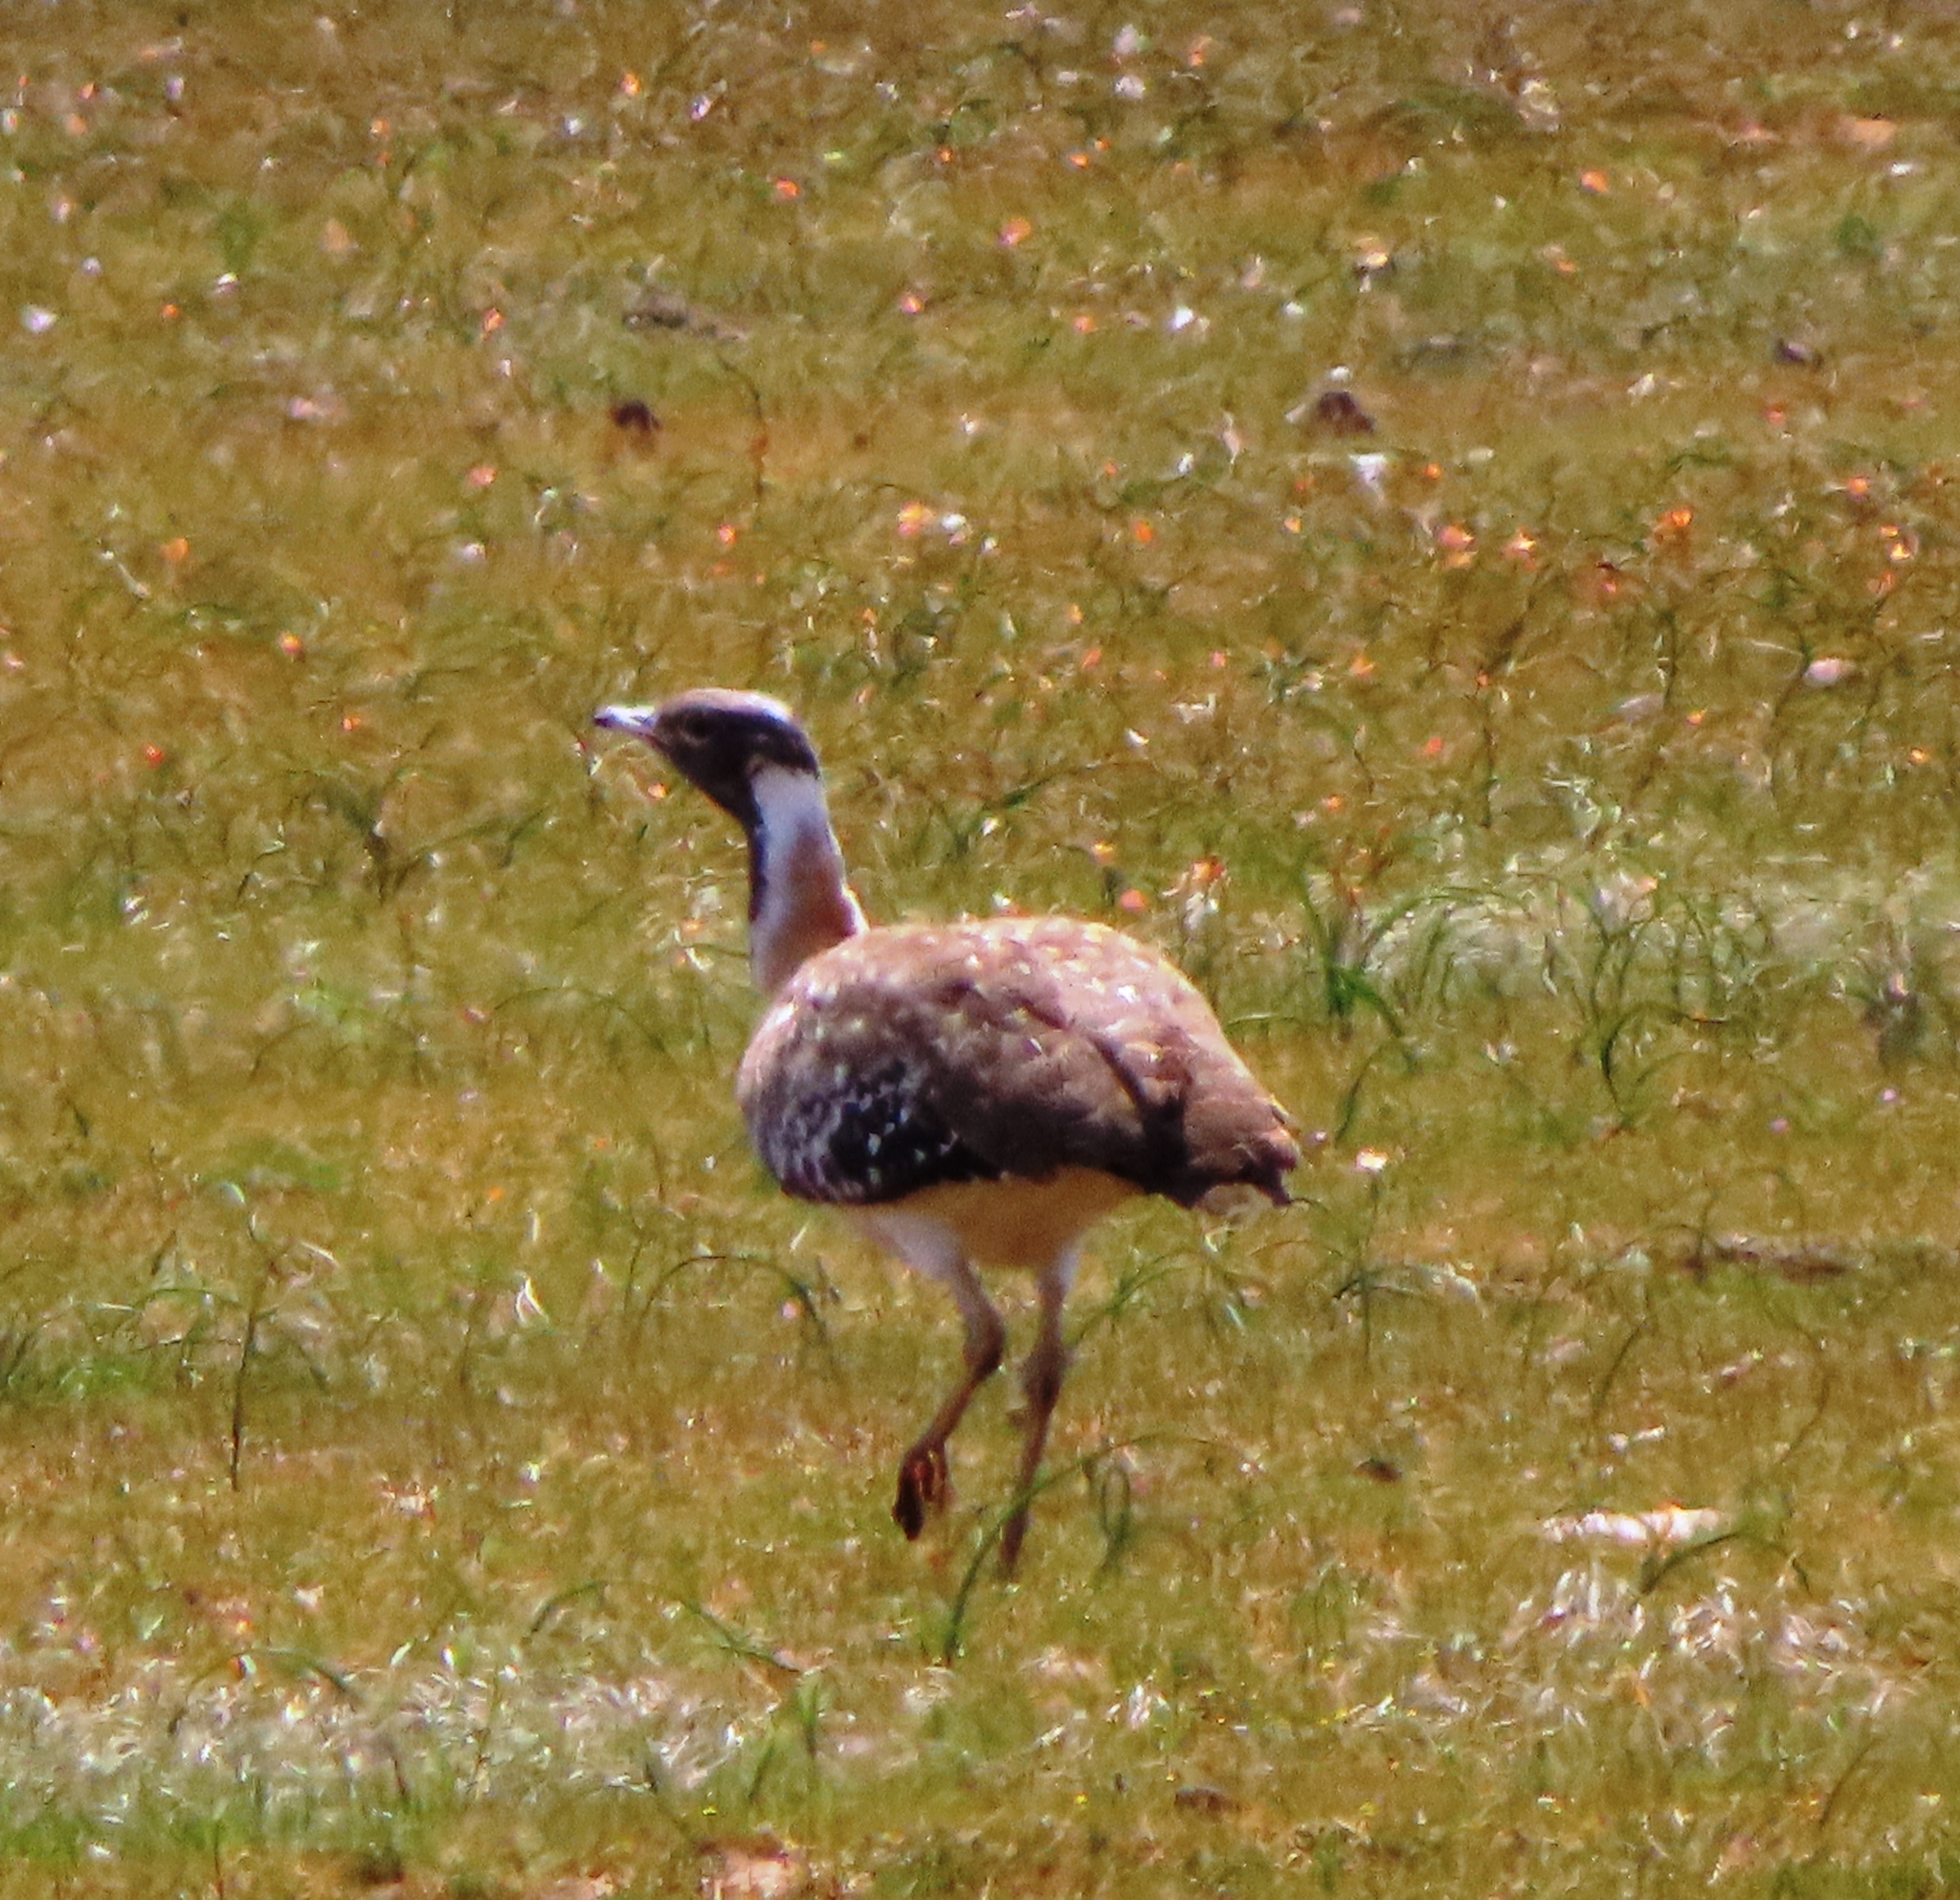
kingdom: Animalia
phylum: Chordata
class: Aves
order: Otidiformes
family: Otididae
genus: Neotis
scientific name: Neotis ludwigii
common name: Ludwig's bustard
